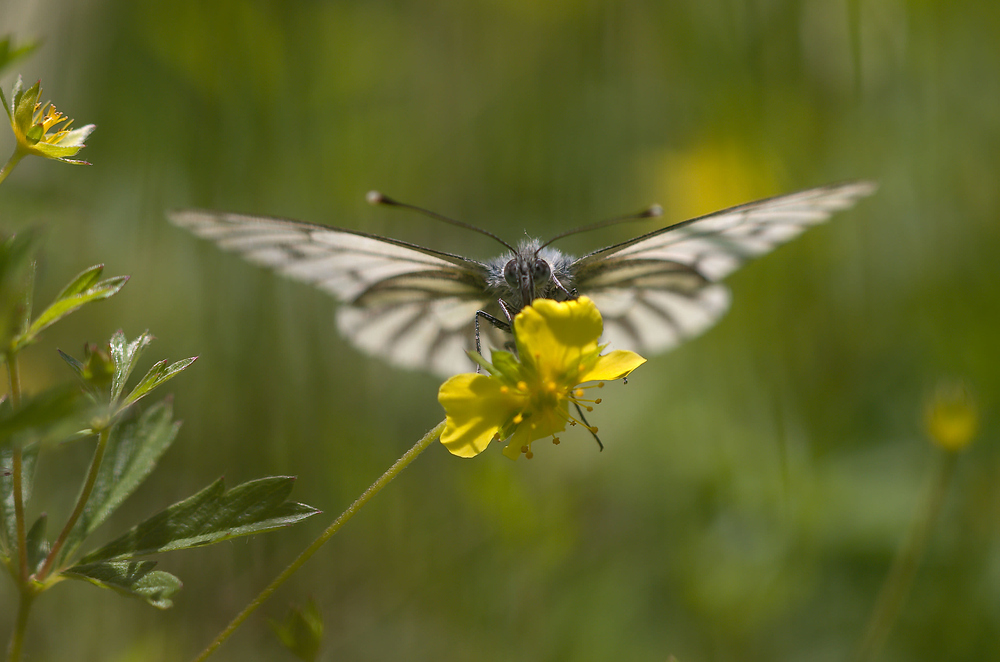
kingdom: Animalia
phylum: Arthropoda
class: Insecta
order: Lepidoptera
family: Pieridae
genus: Pieris
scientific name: Pieris napi
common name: Green-veined white
